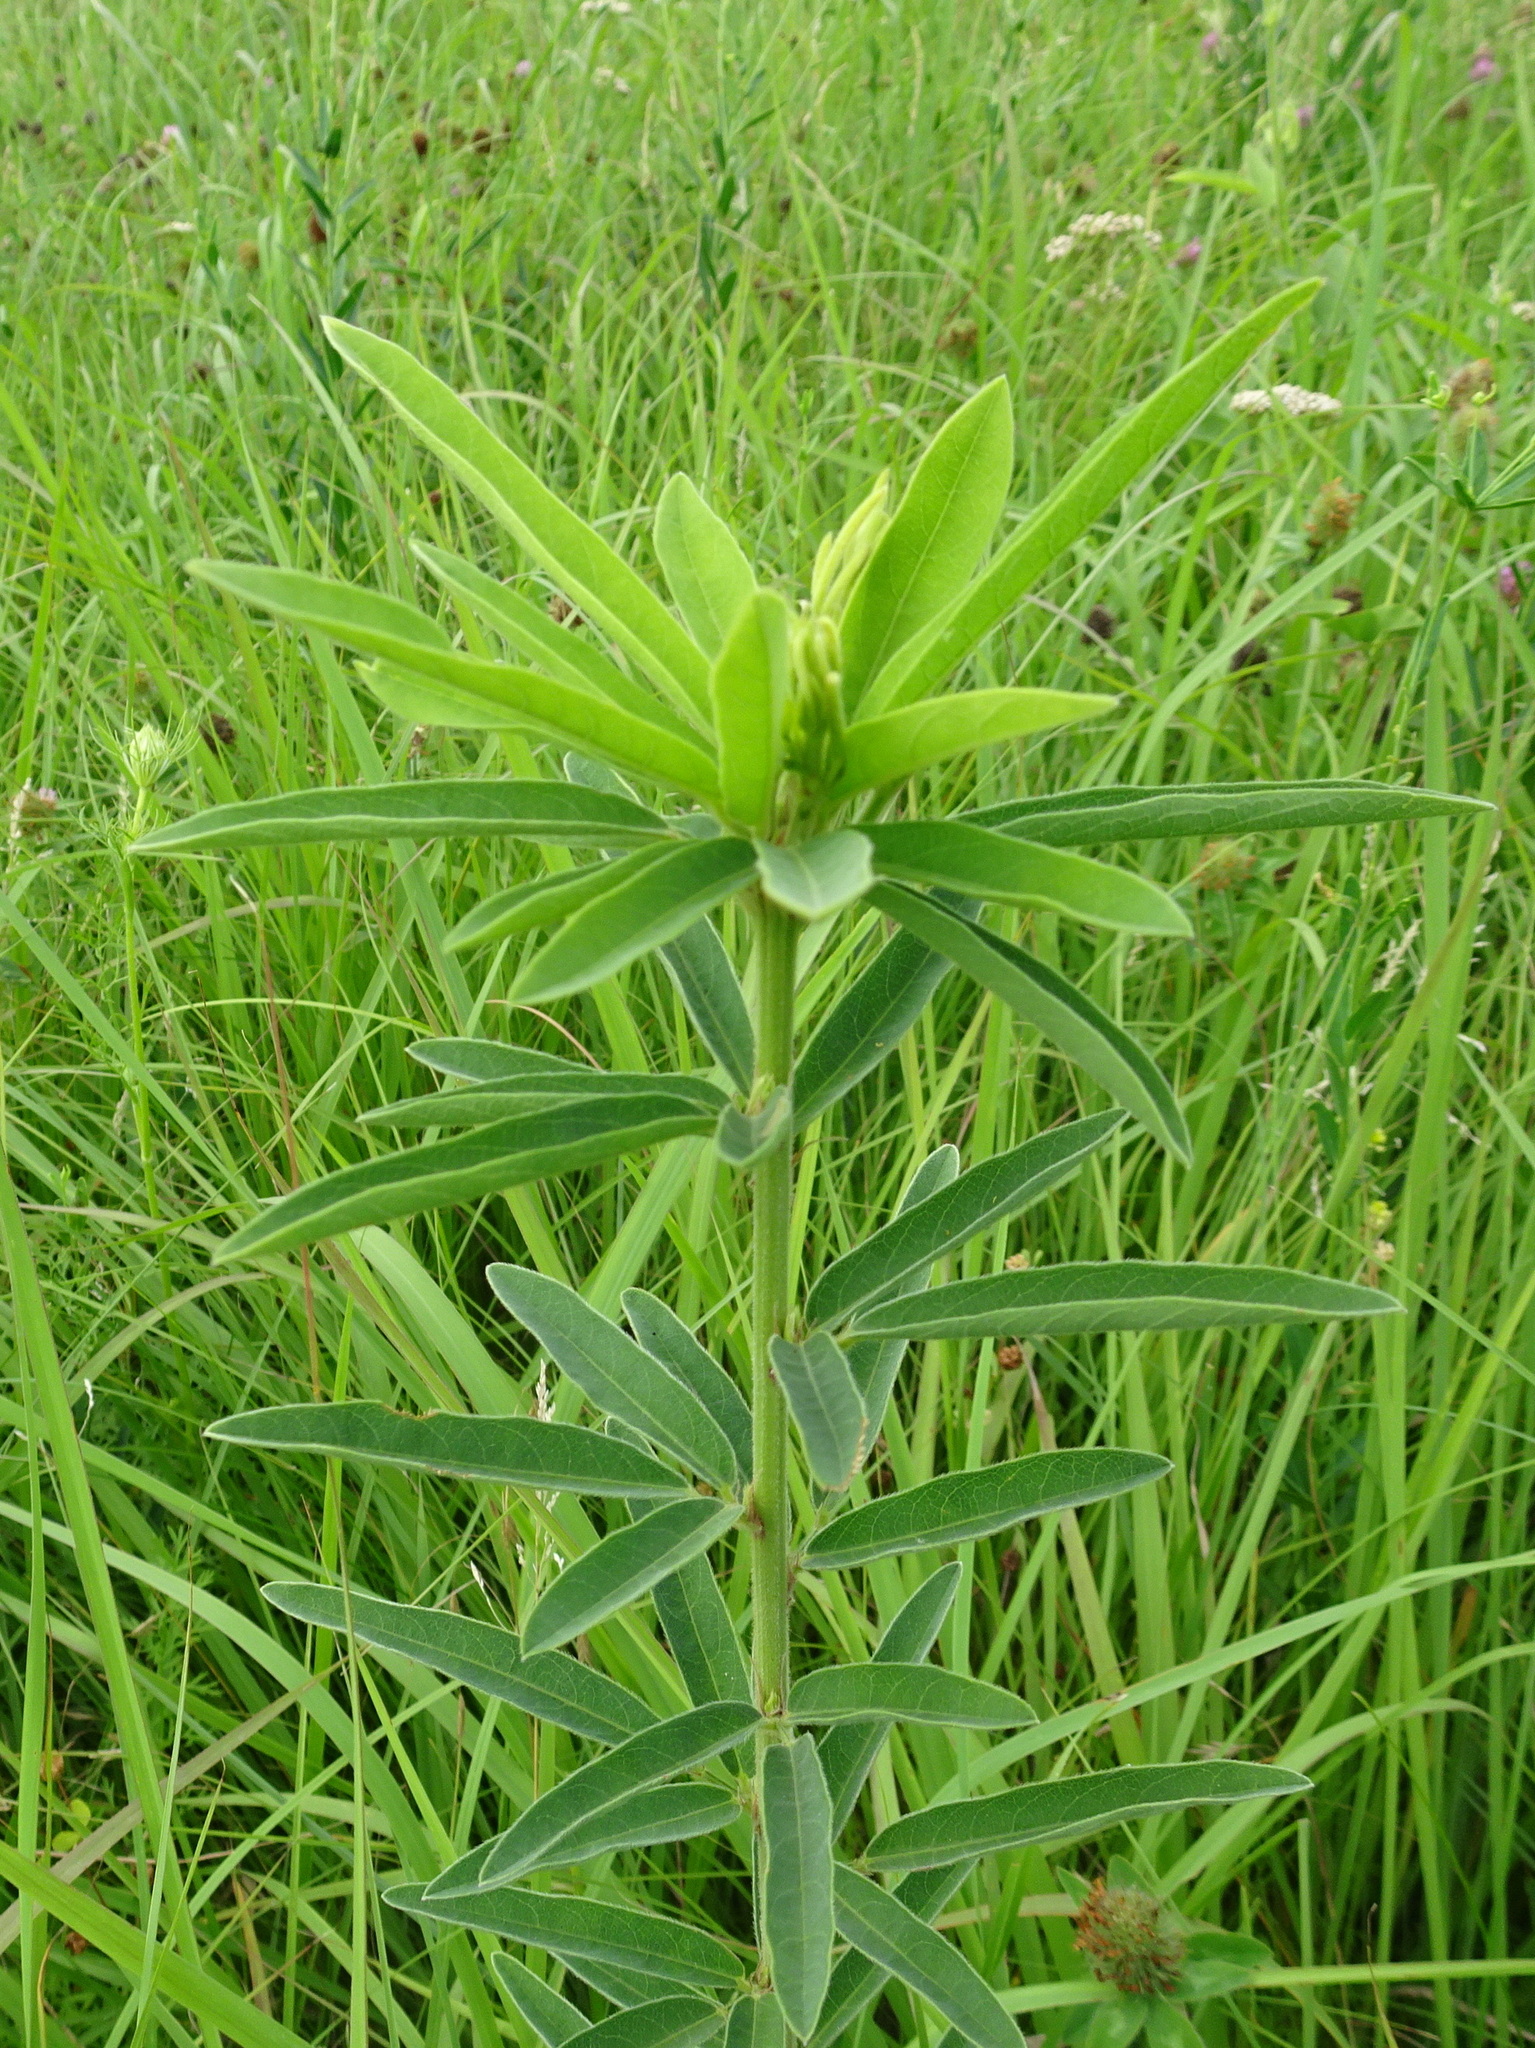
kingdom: Plantae
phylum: Tracheophyta
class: Magnoliopsida
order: Fabales
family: Fabaceae
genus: Desmodium
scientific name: Desmodium sessilifolium
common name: Sessile tick-clover
